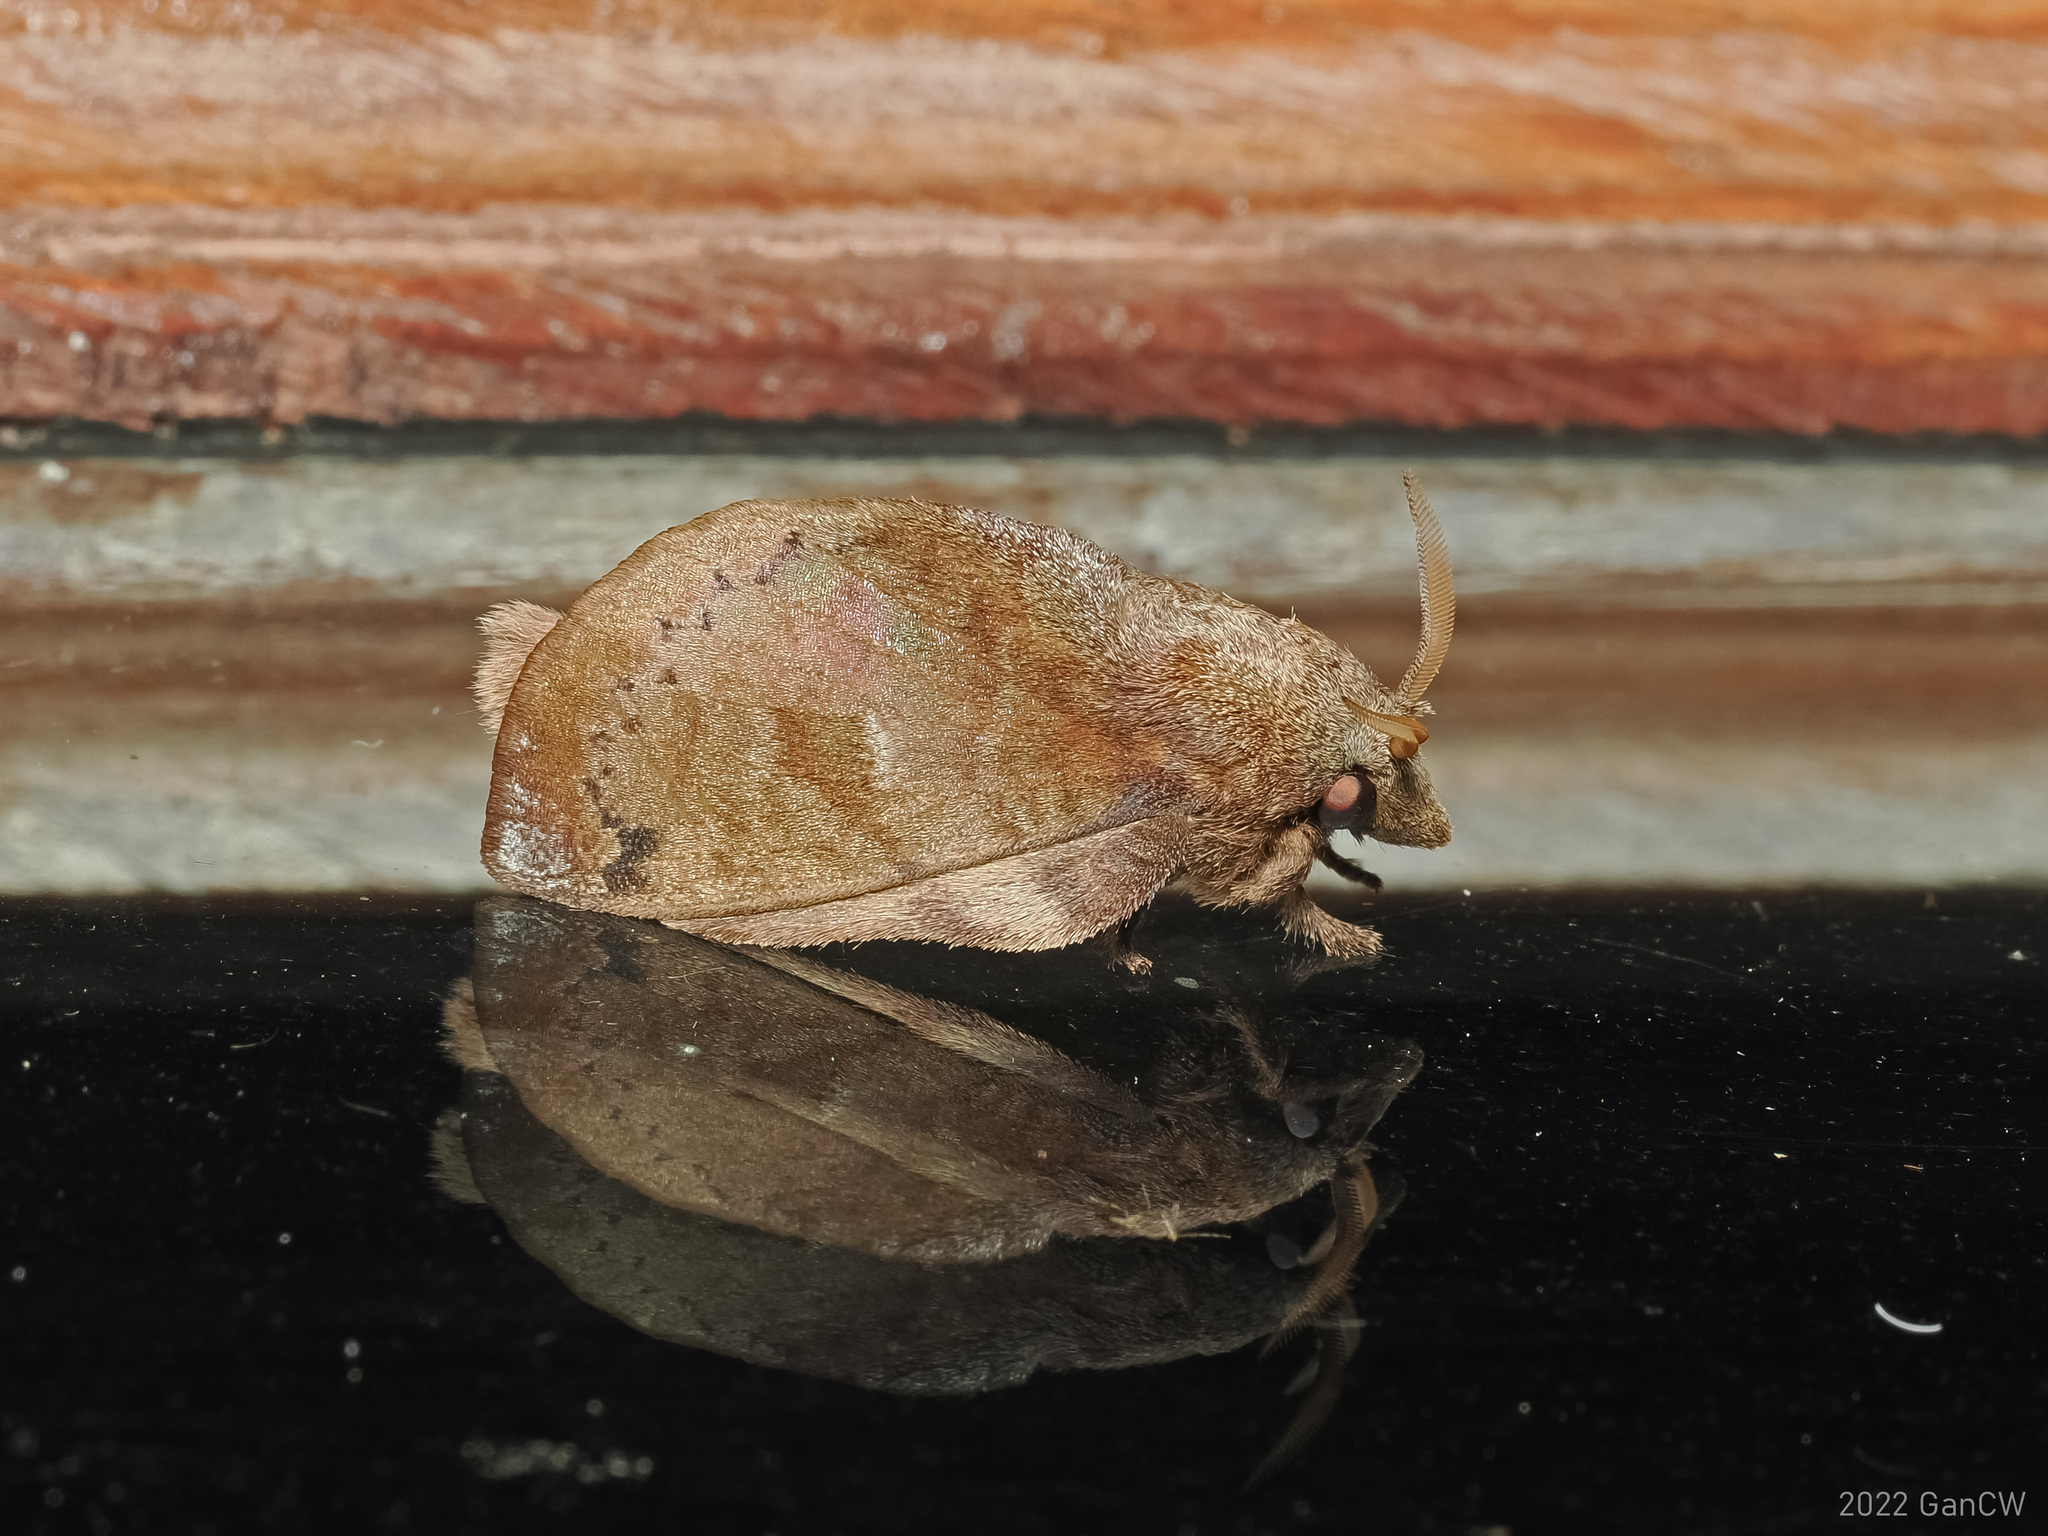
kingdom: Animalia
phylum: Arthropoda
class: Insecta
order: Lepidoptera
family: Lasiocampidae
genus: Micropacha
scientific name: Micropacha roepkei
